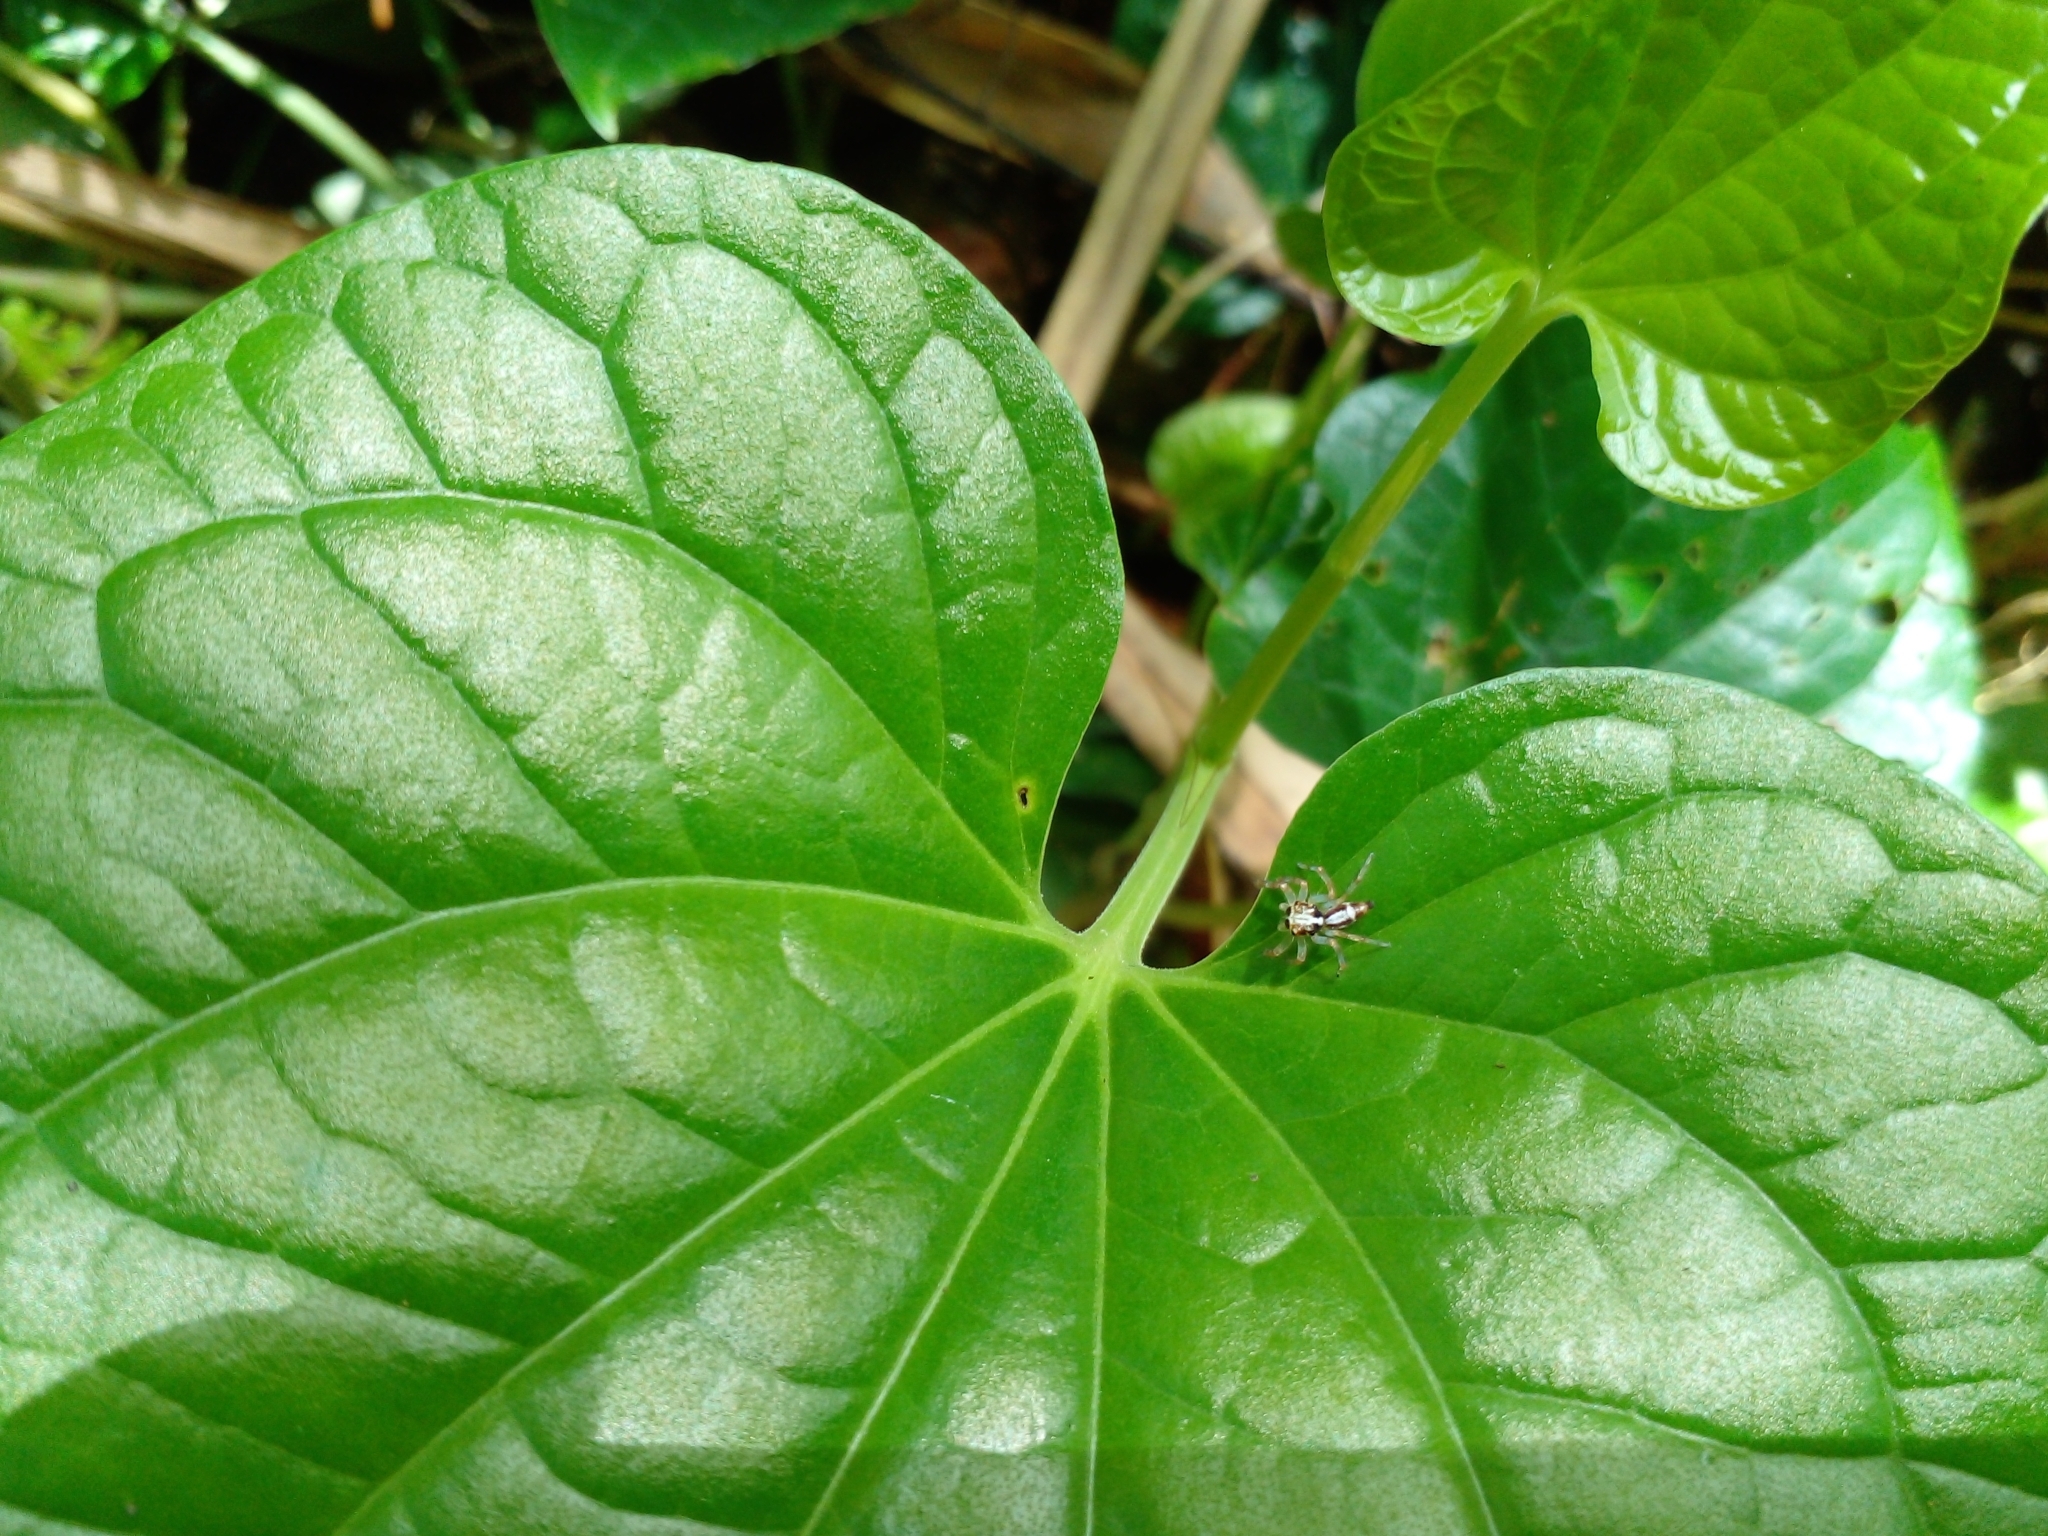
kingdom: Plantae
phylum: Tracheophyta
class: Magnoliopsida
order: Piperales
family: Piperaceae
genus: Piper
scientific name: Piper sarmentosum
